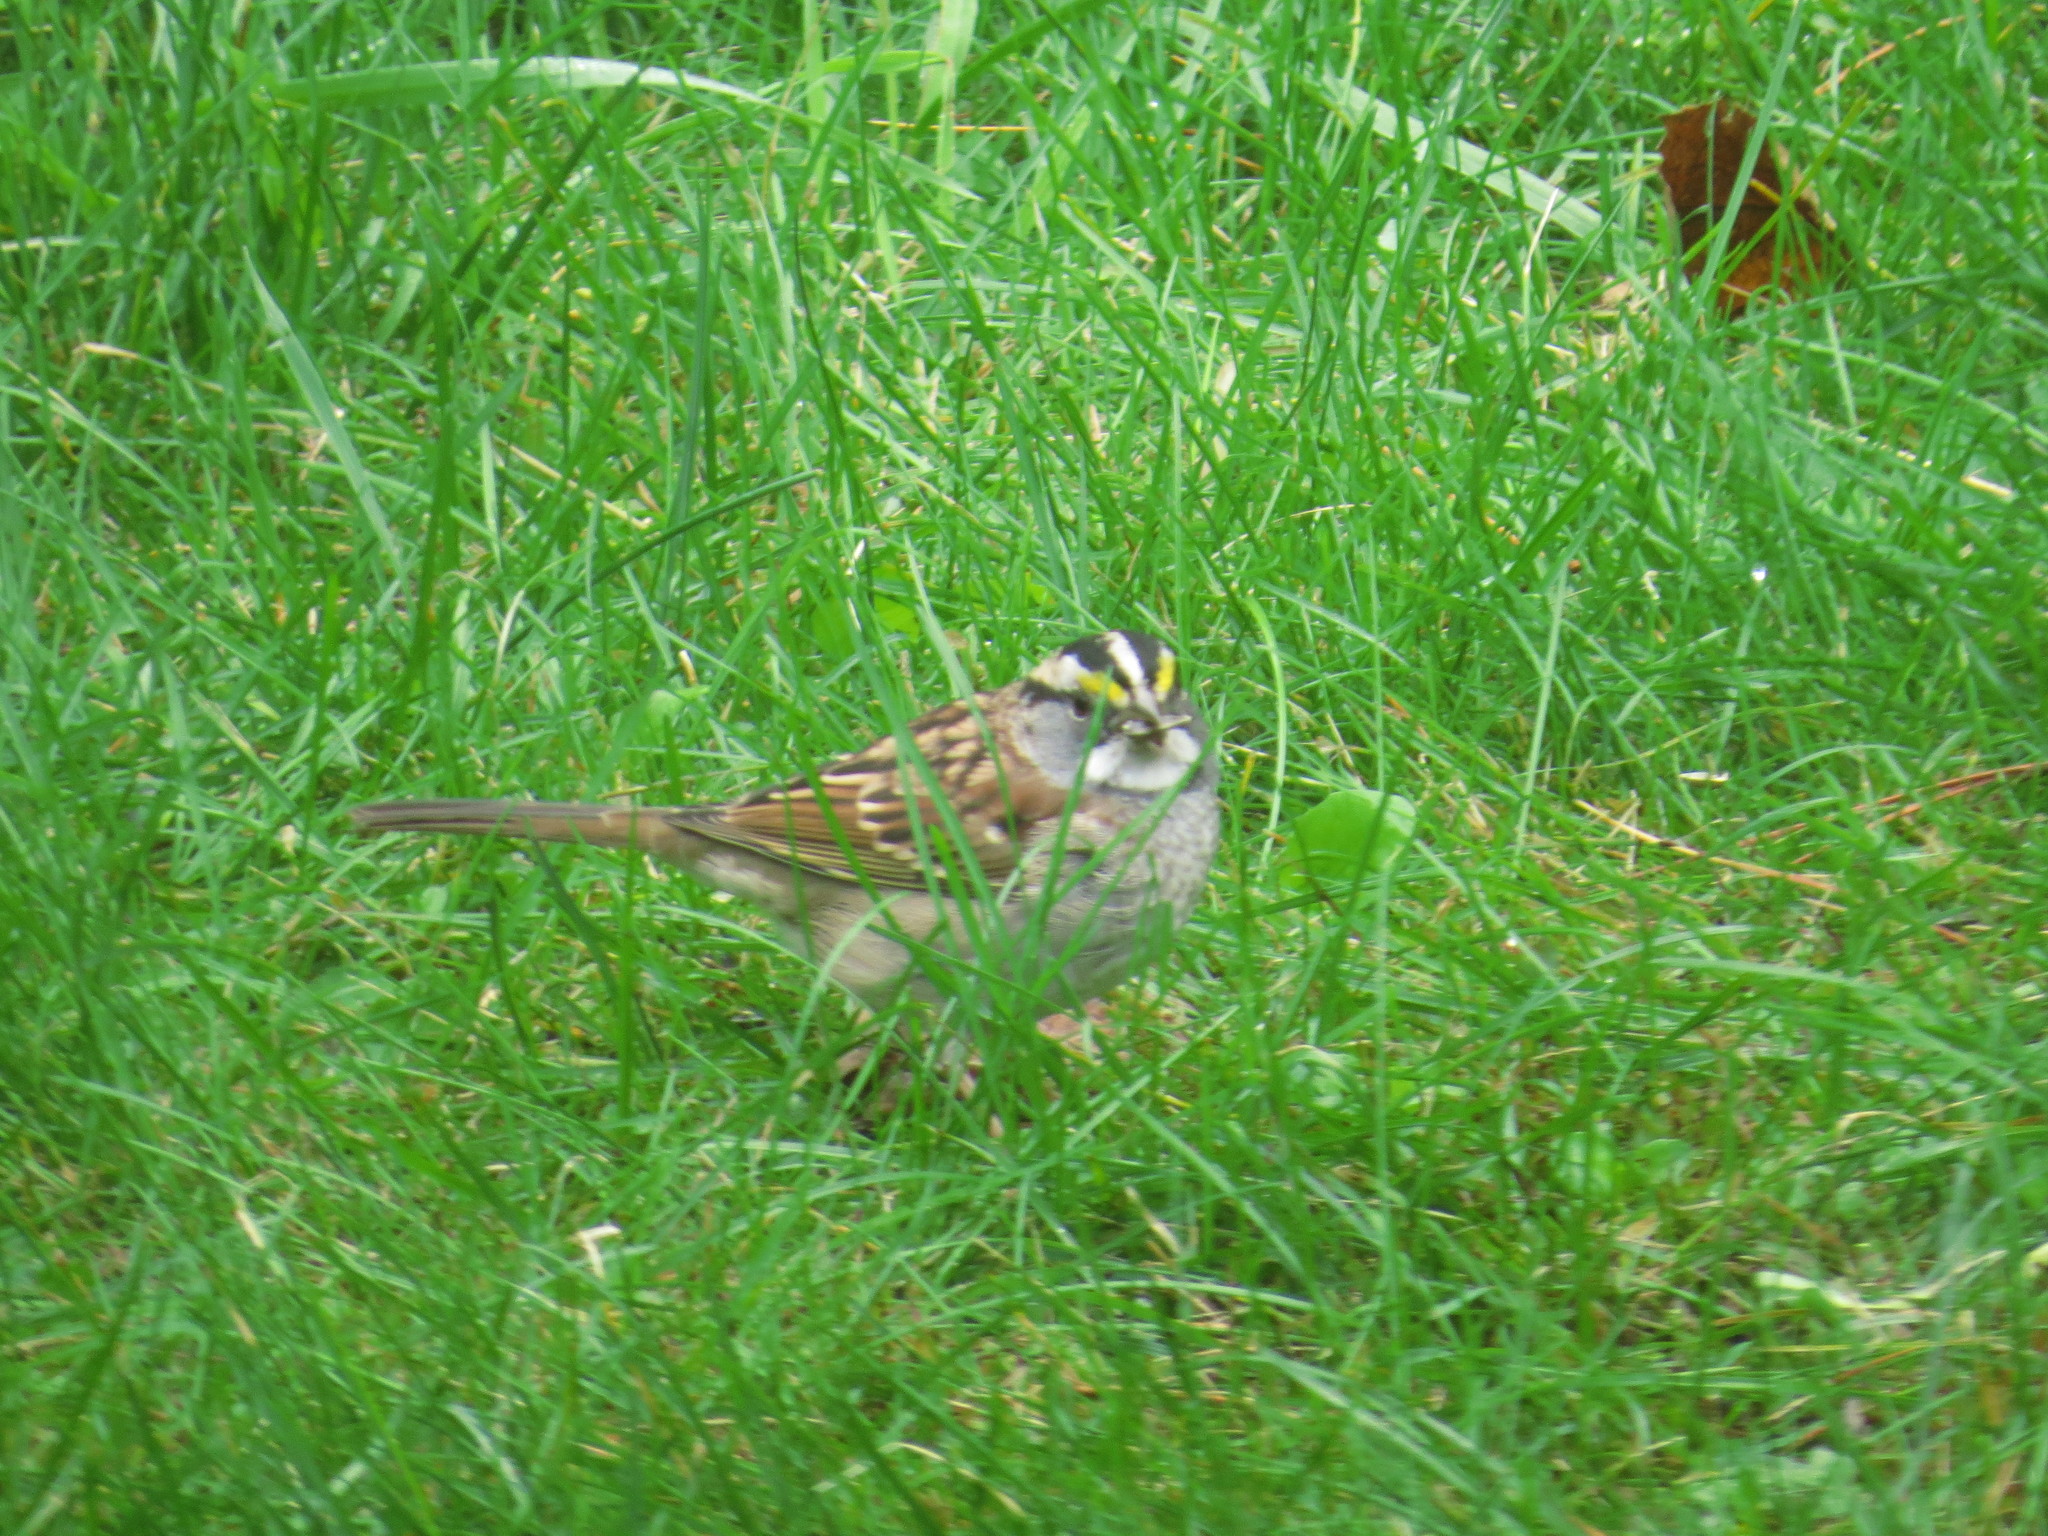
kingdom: Animalia
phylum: Chordata
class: Aves
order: Passeriformes
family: Passerellidae
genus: Zonotrichia
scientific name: Zonotrichia albicollis
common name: White-throated sparrow
